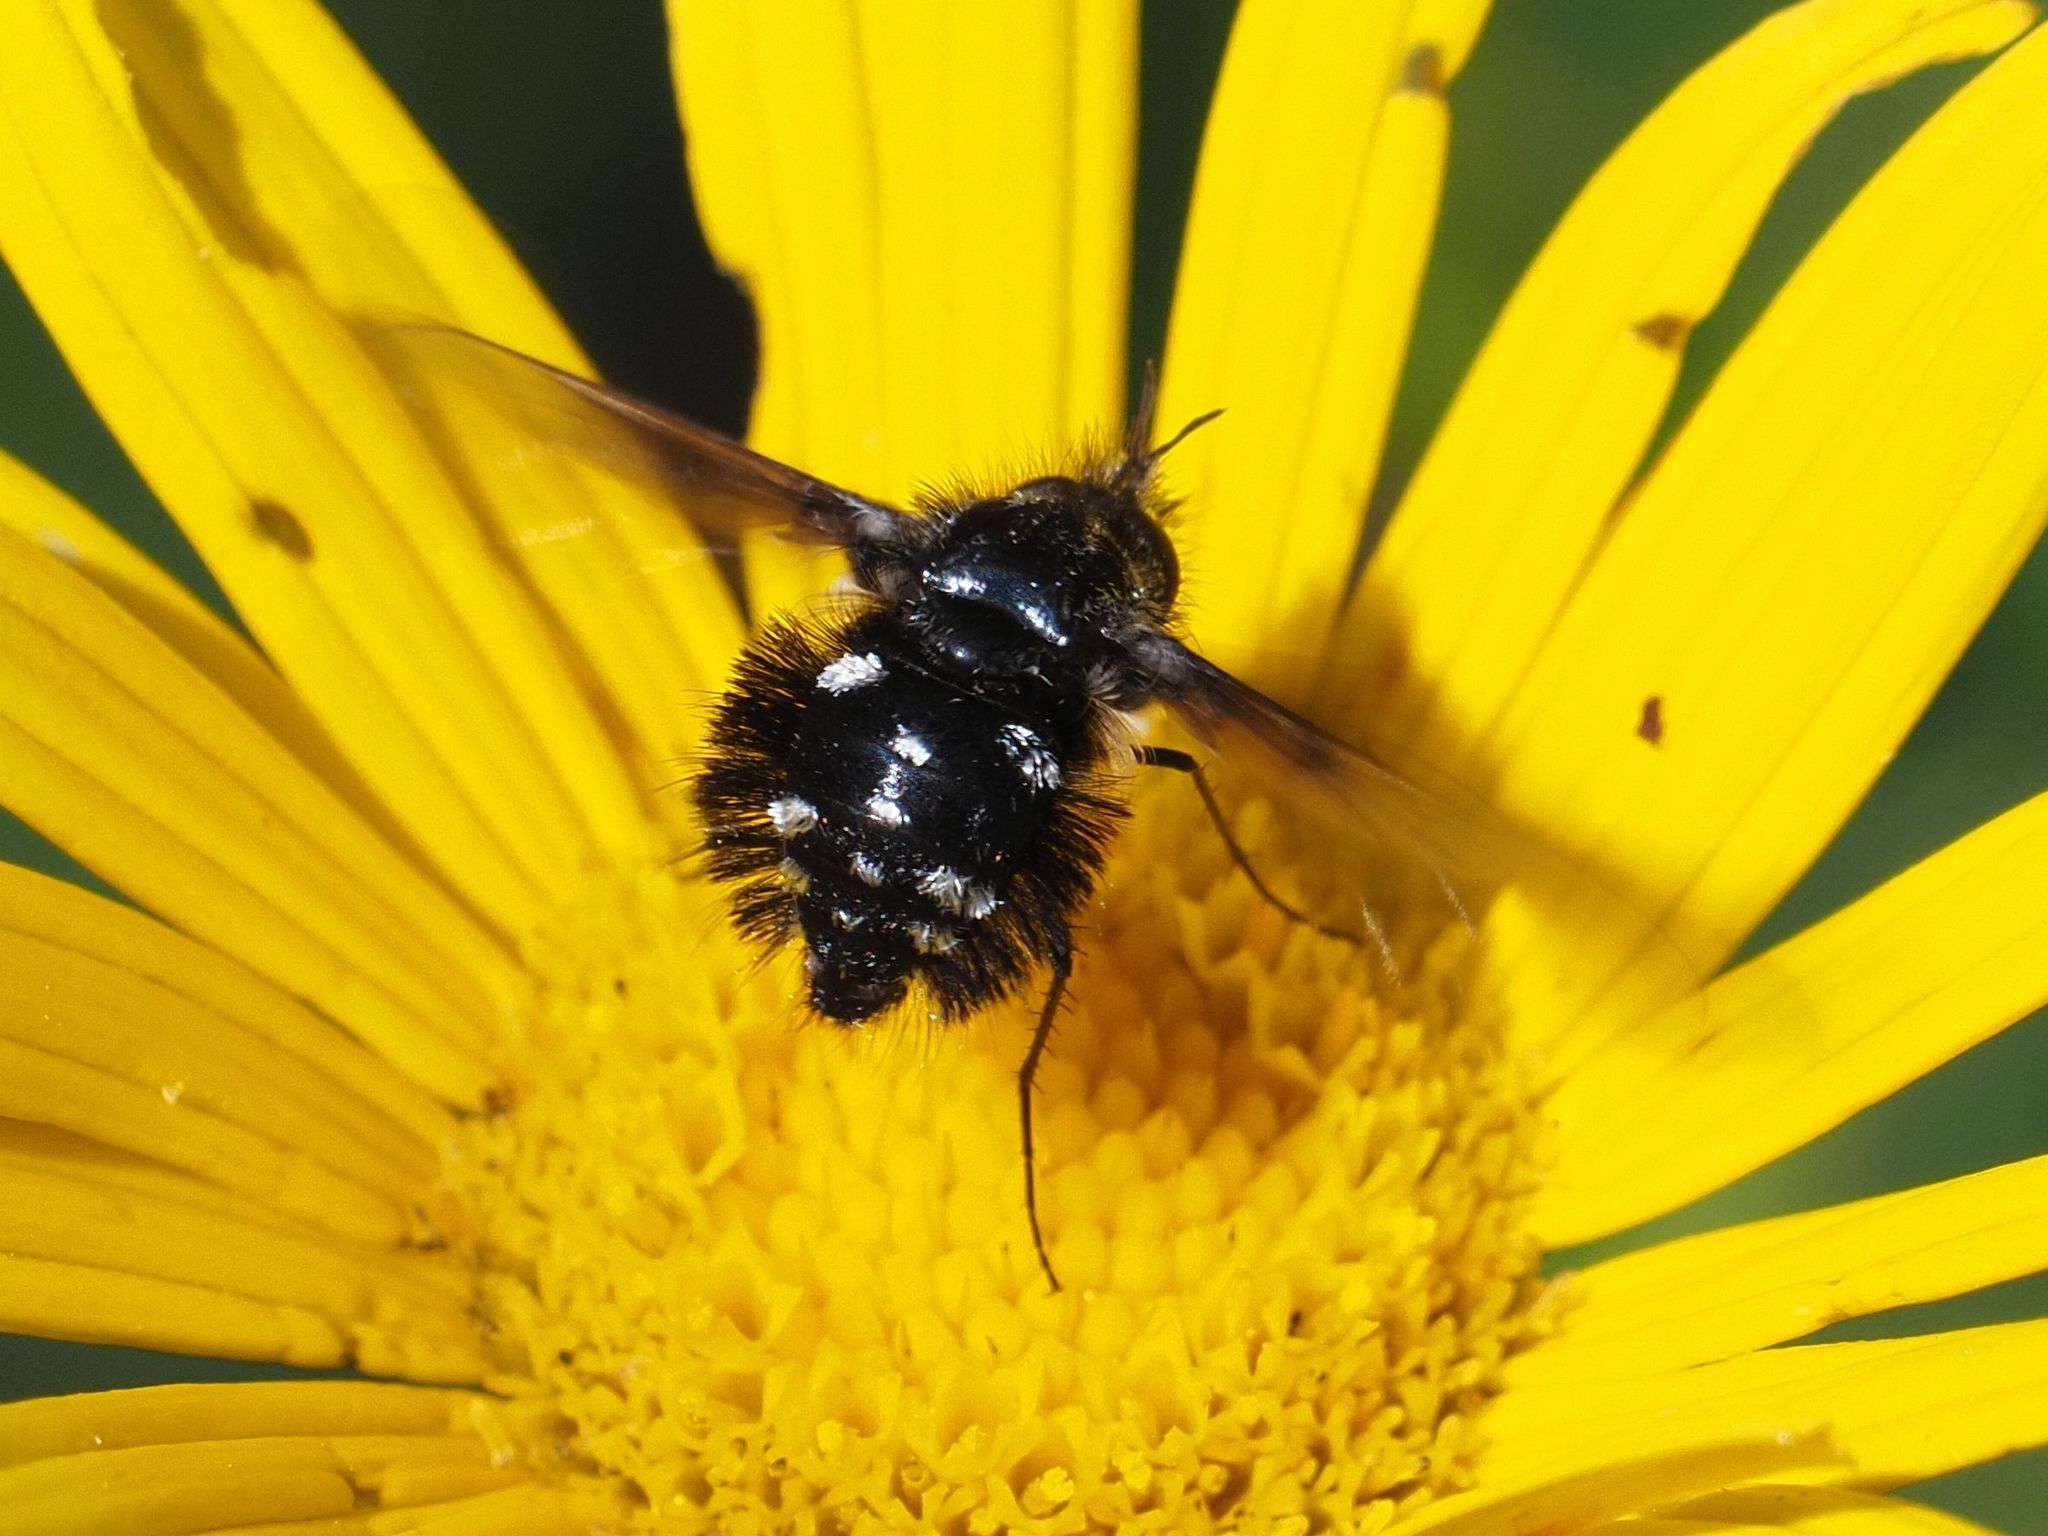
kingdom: Animalia
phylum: Arthropoda
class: Insecta
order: Diptera
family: Bombyliidae
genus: Bombylella
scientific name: Bombylella atra
